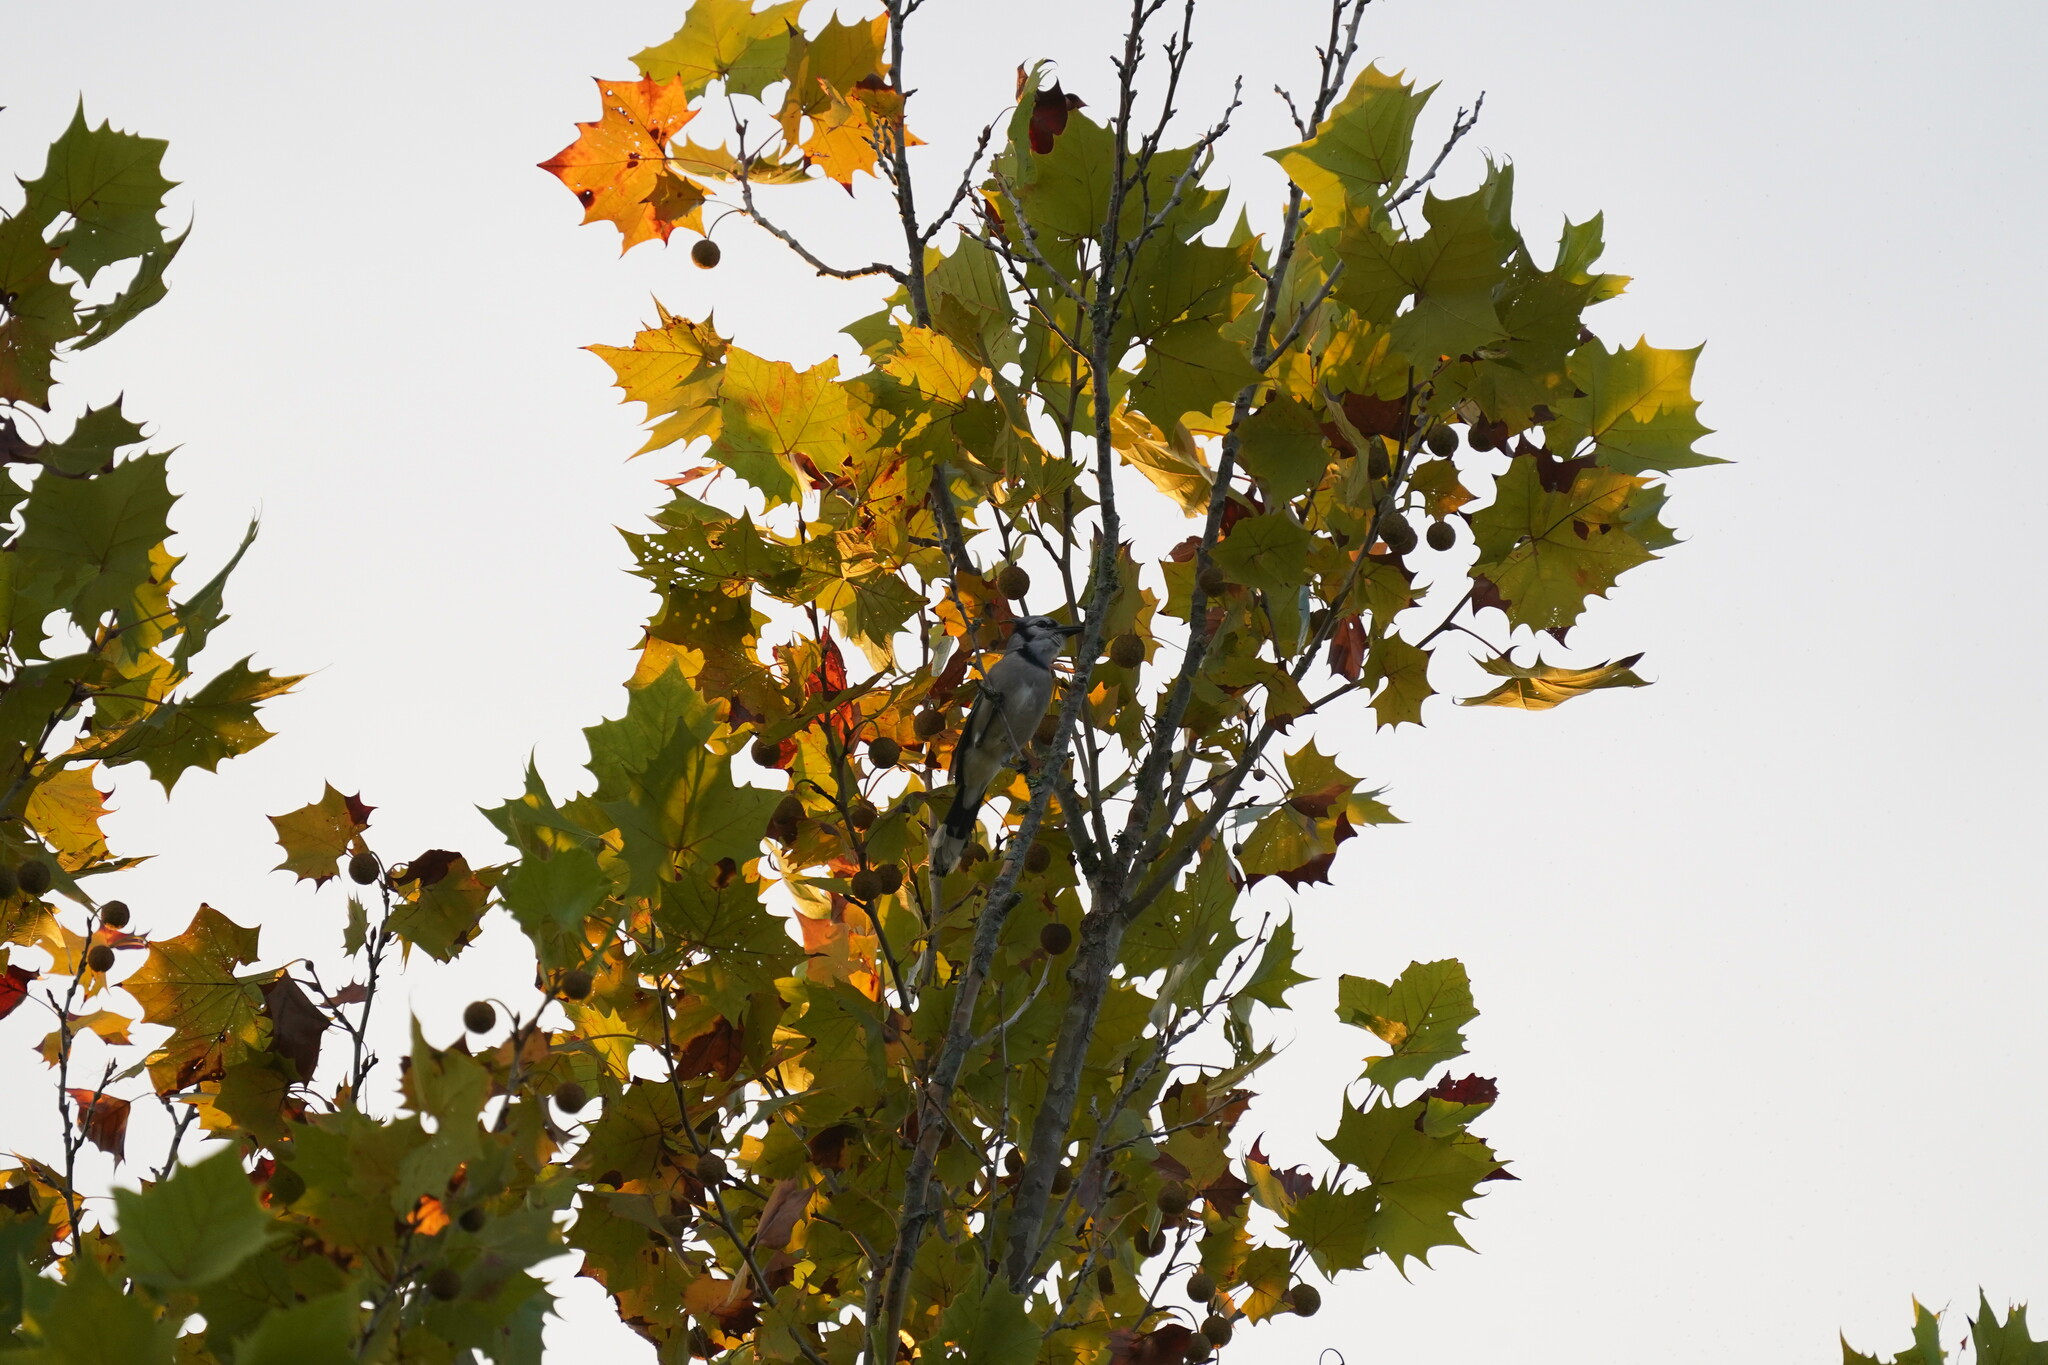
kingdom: Animalia
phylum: Chordata
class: Aves
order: Passeriformes
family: Corvidae
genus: Cyanocitta
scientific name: Cyanocitta cristata
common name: Blue jay
